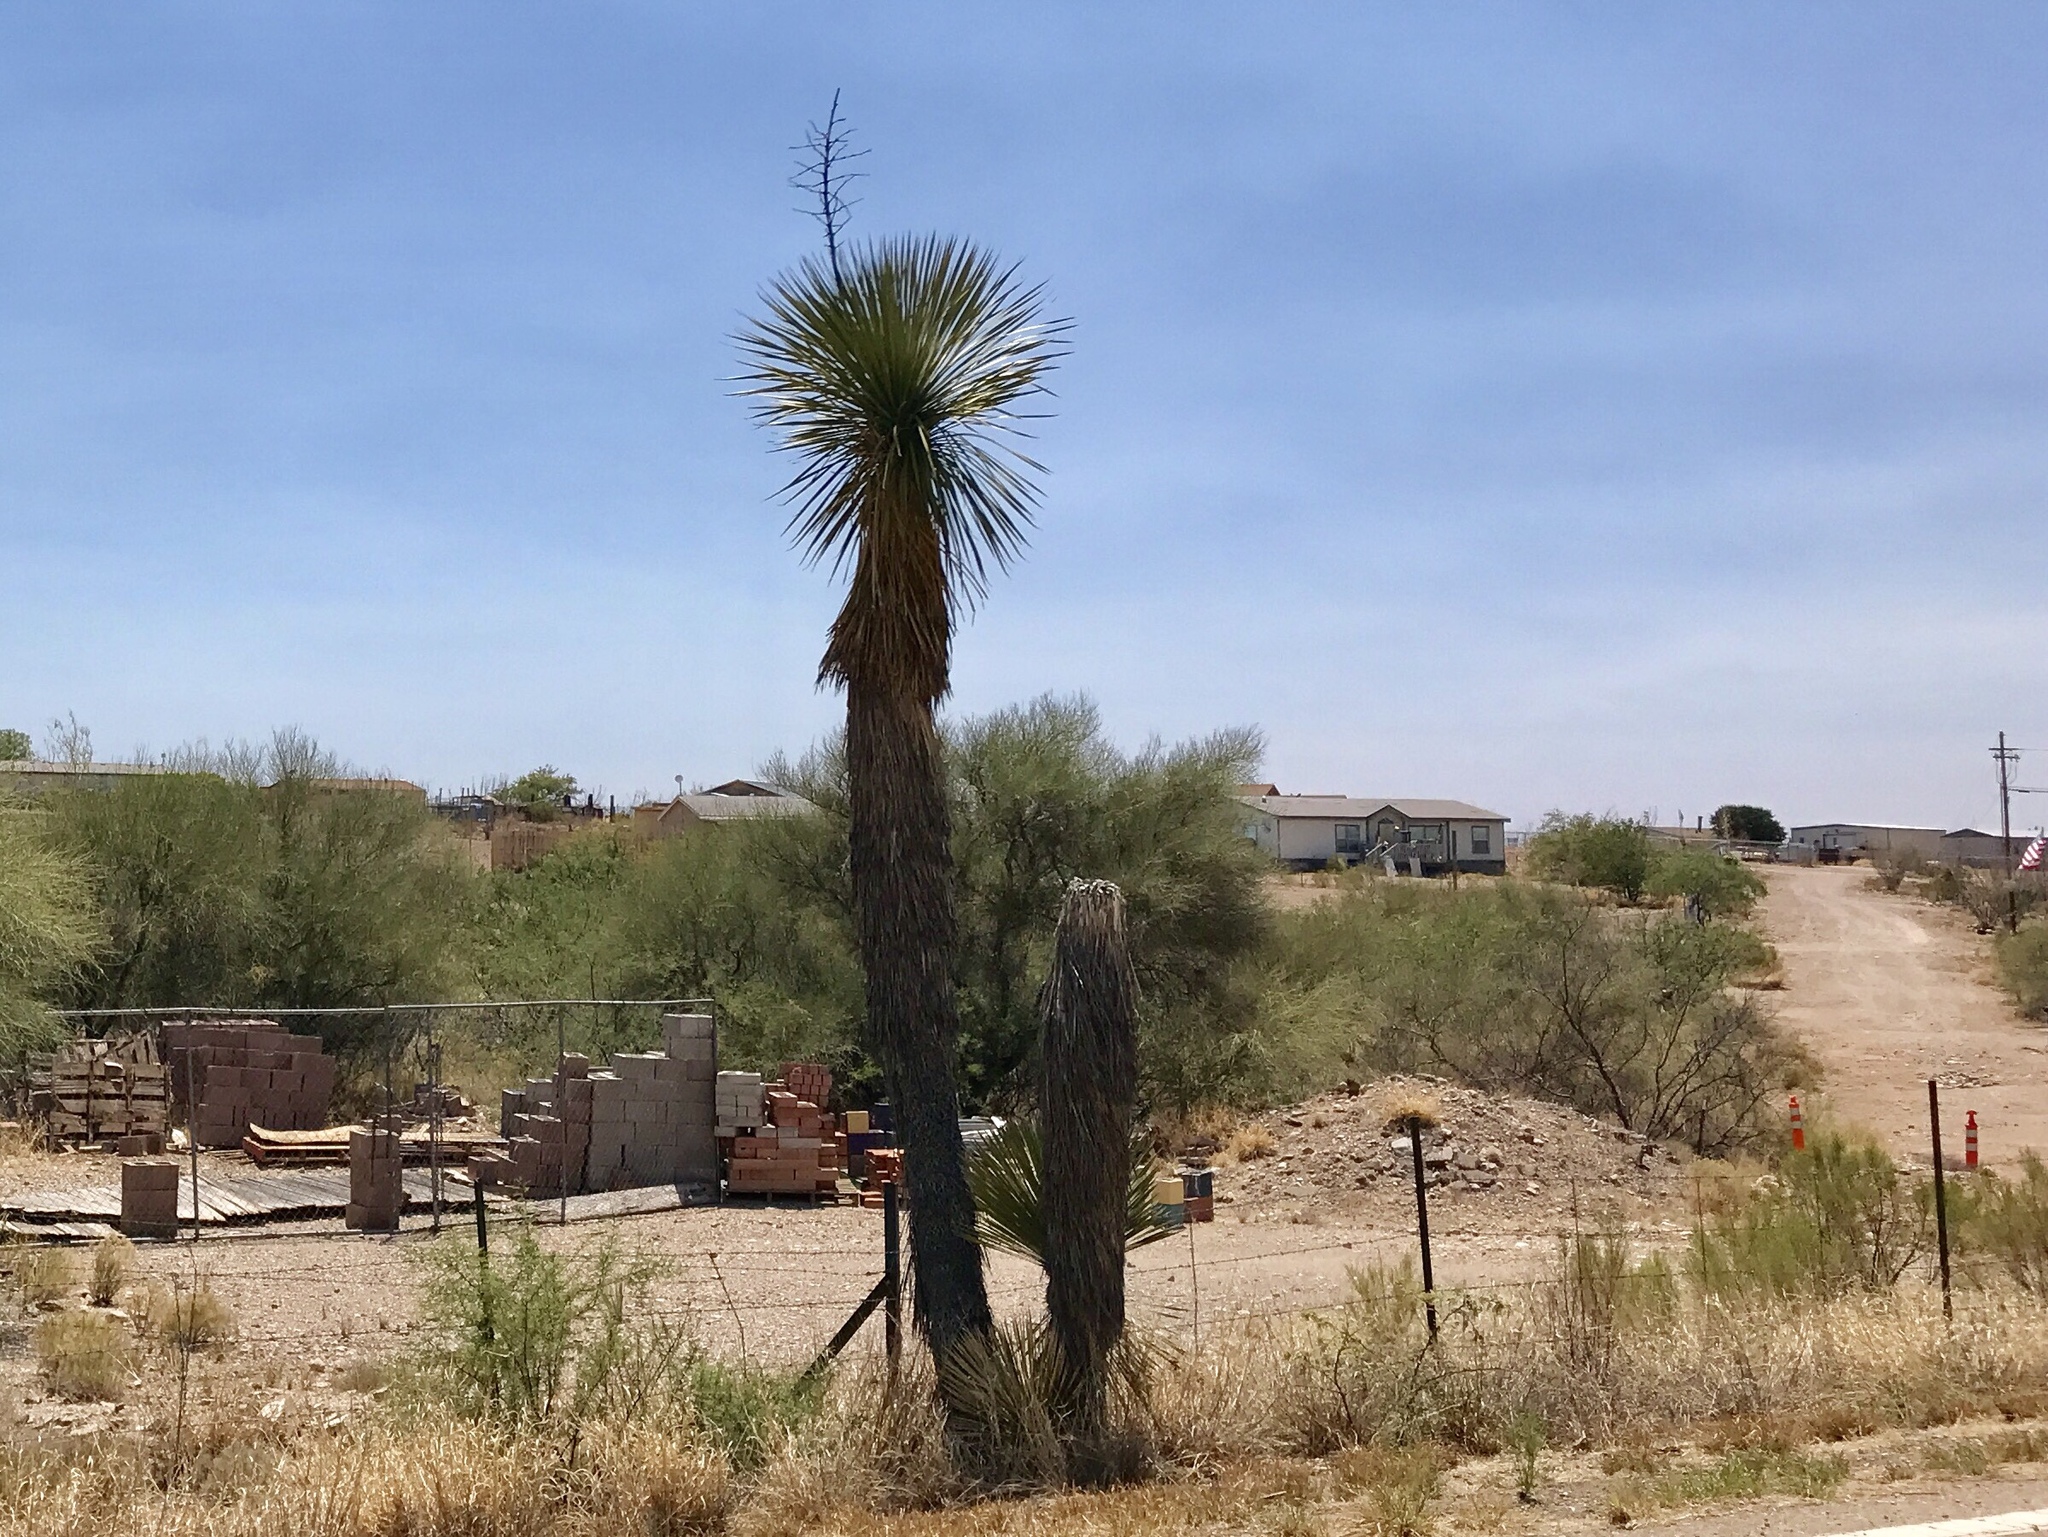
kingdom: Plantae
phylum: Tracheophyta
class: Liliopsida
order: Asparagales
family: Asparagaceae
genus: Yucca
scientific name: Yucca elata
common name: Palmella
